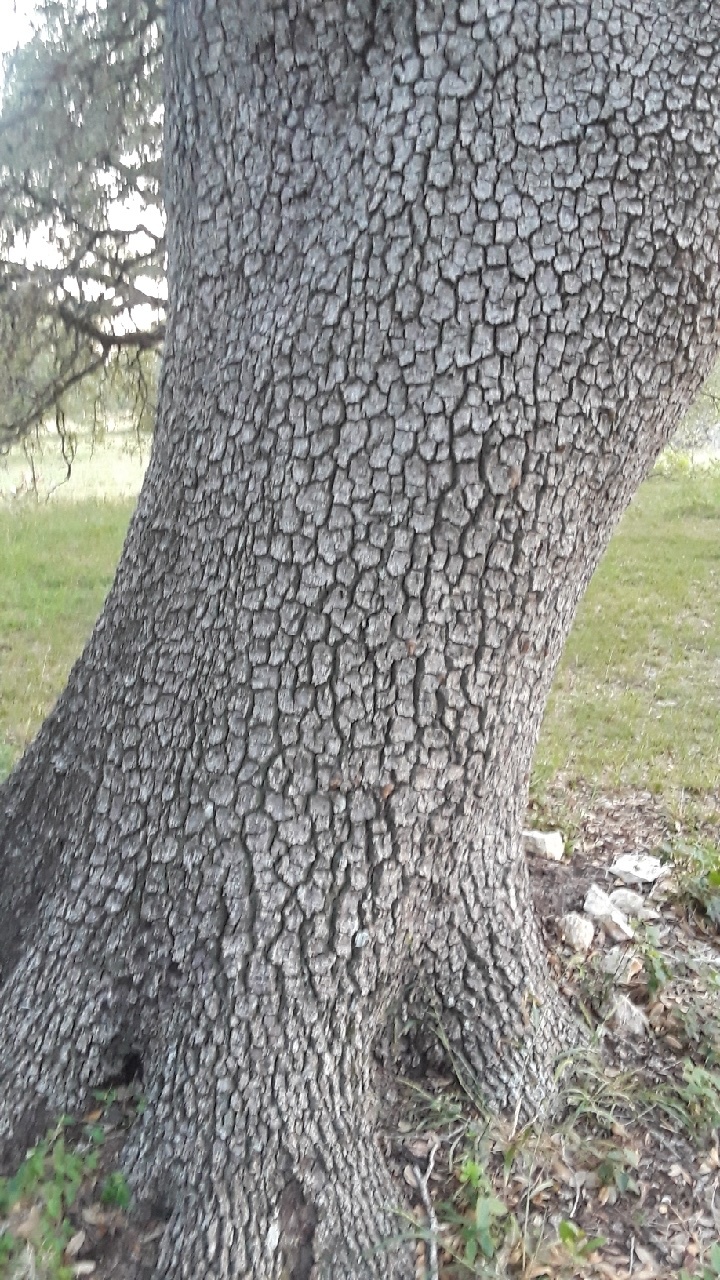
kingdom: Plantae
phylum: Tracheophyta
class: Magnoliopsida
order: Fagales
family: Fagaceae
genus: Quercus
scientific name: Quercus virginiana
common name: Southern live oak
